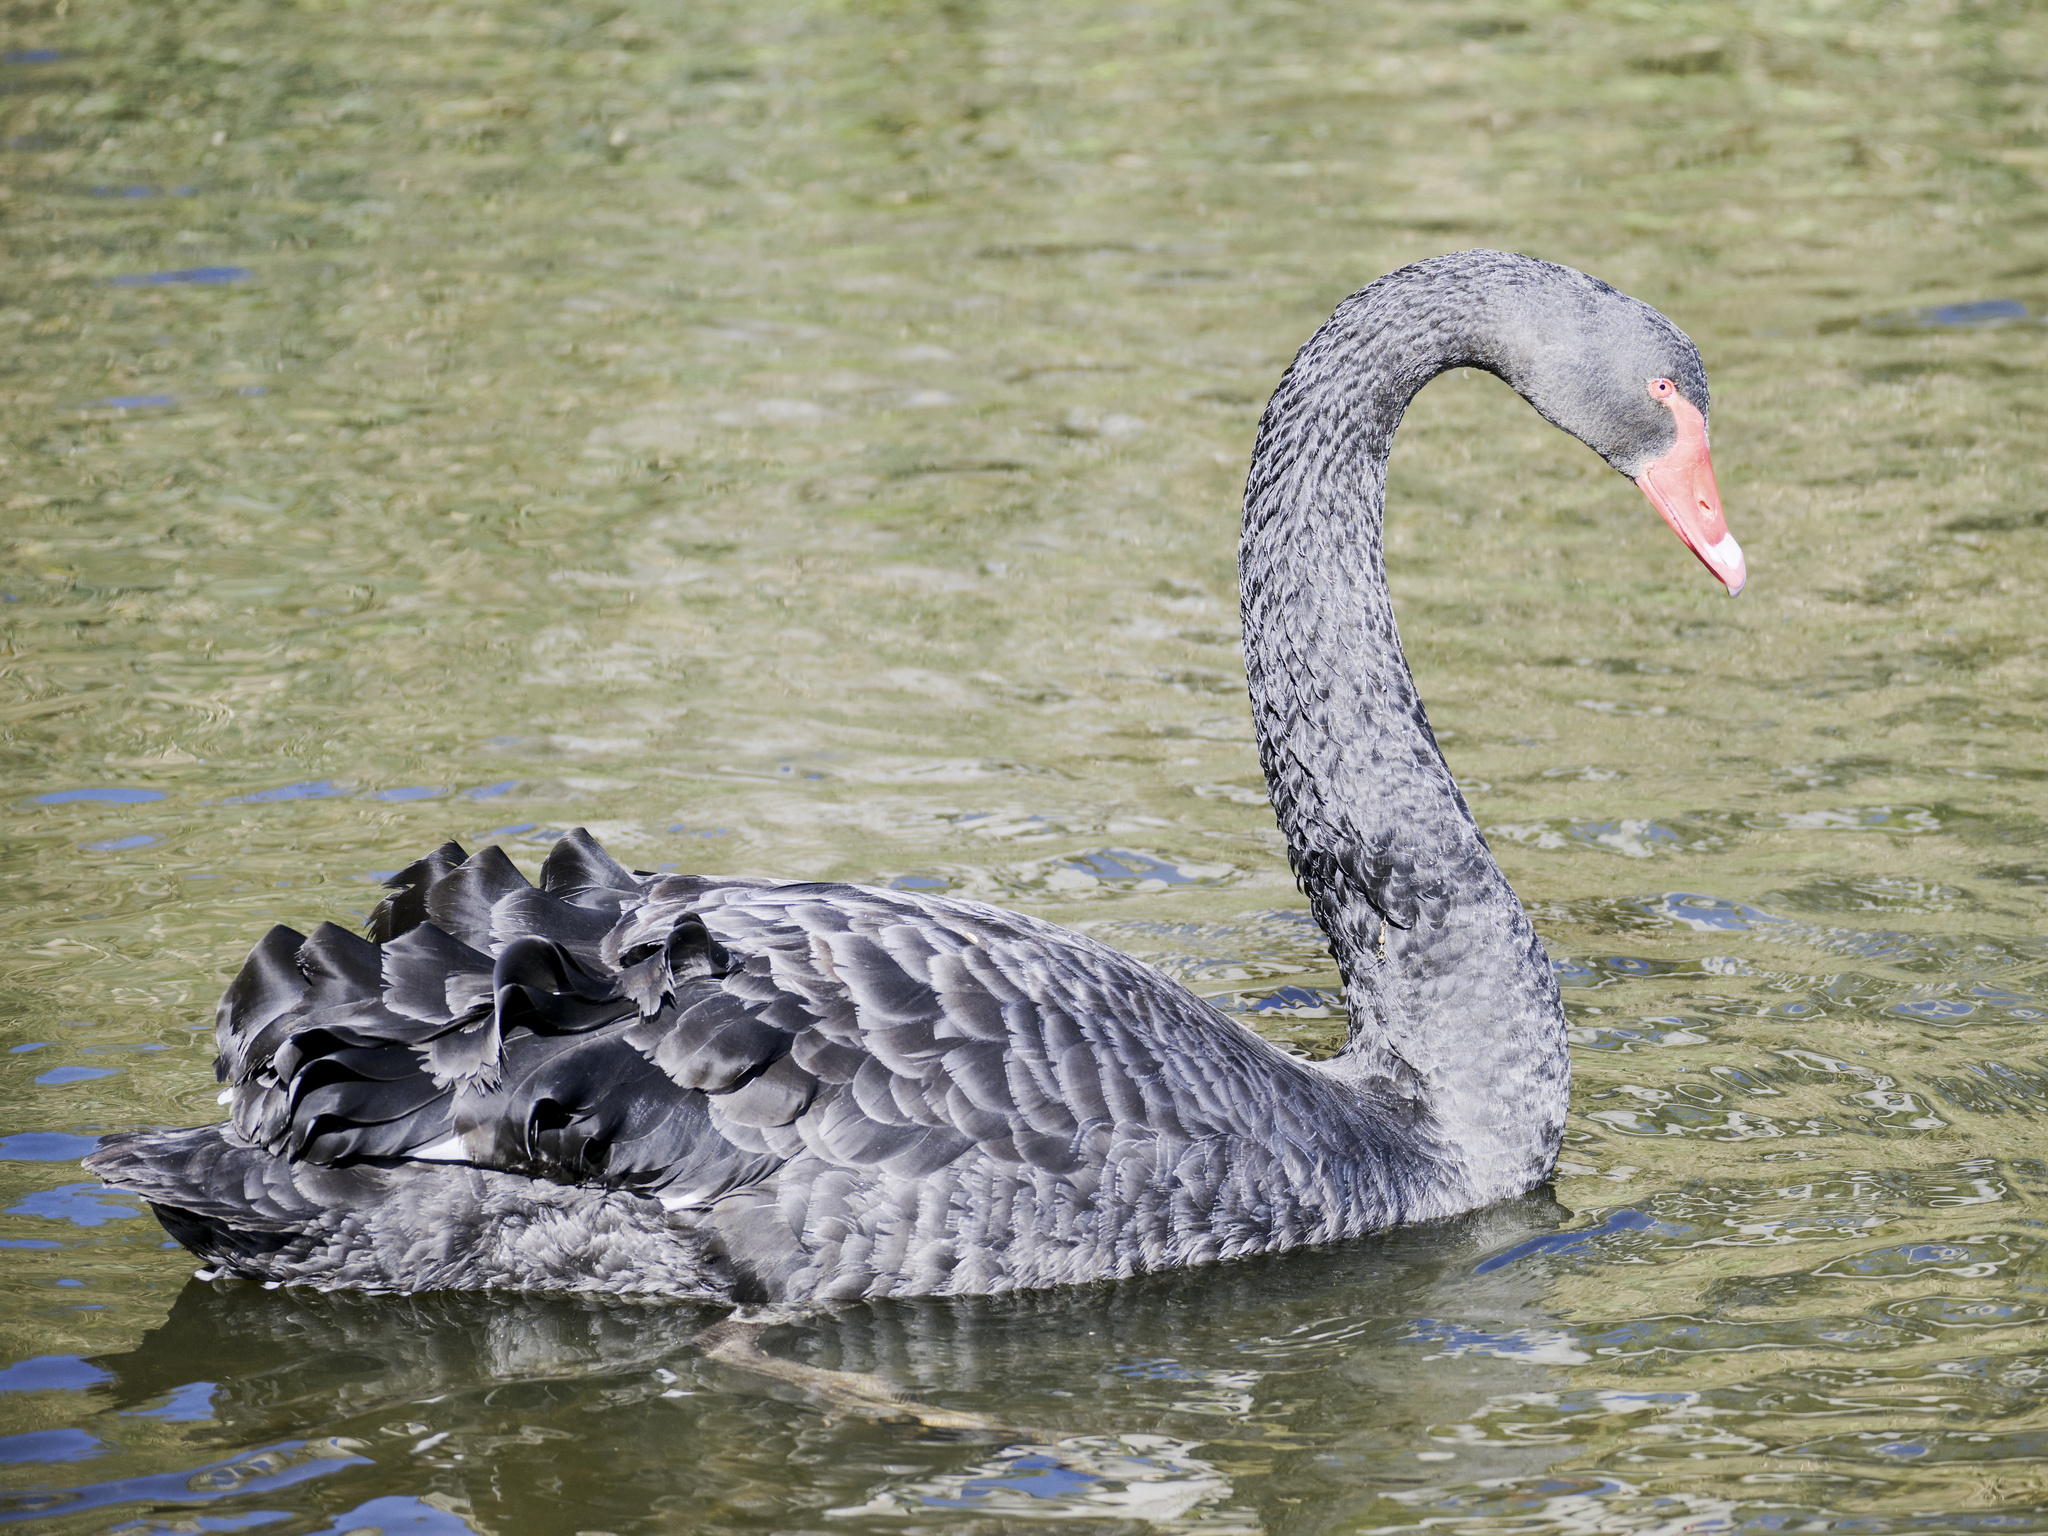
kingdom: Animalia
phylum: Chordata
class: Aves
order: Anseriformes
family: Anatidae
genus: Cygnus
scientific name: Cygnus atratus
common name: Black swan
